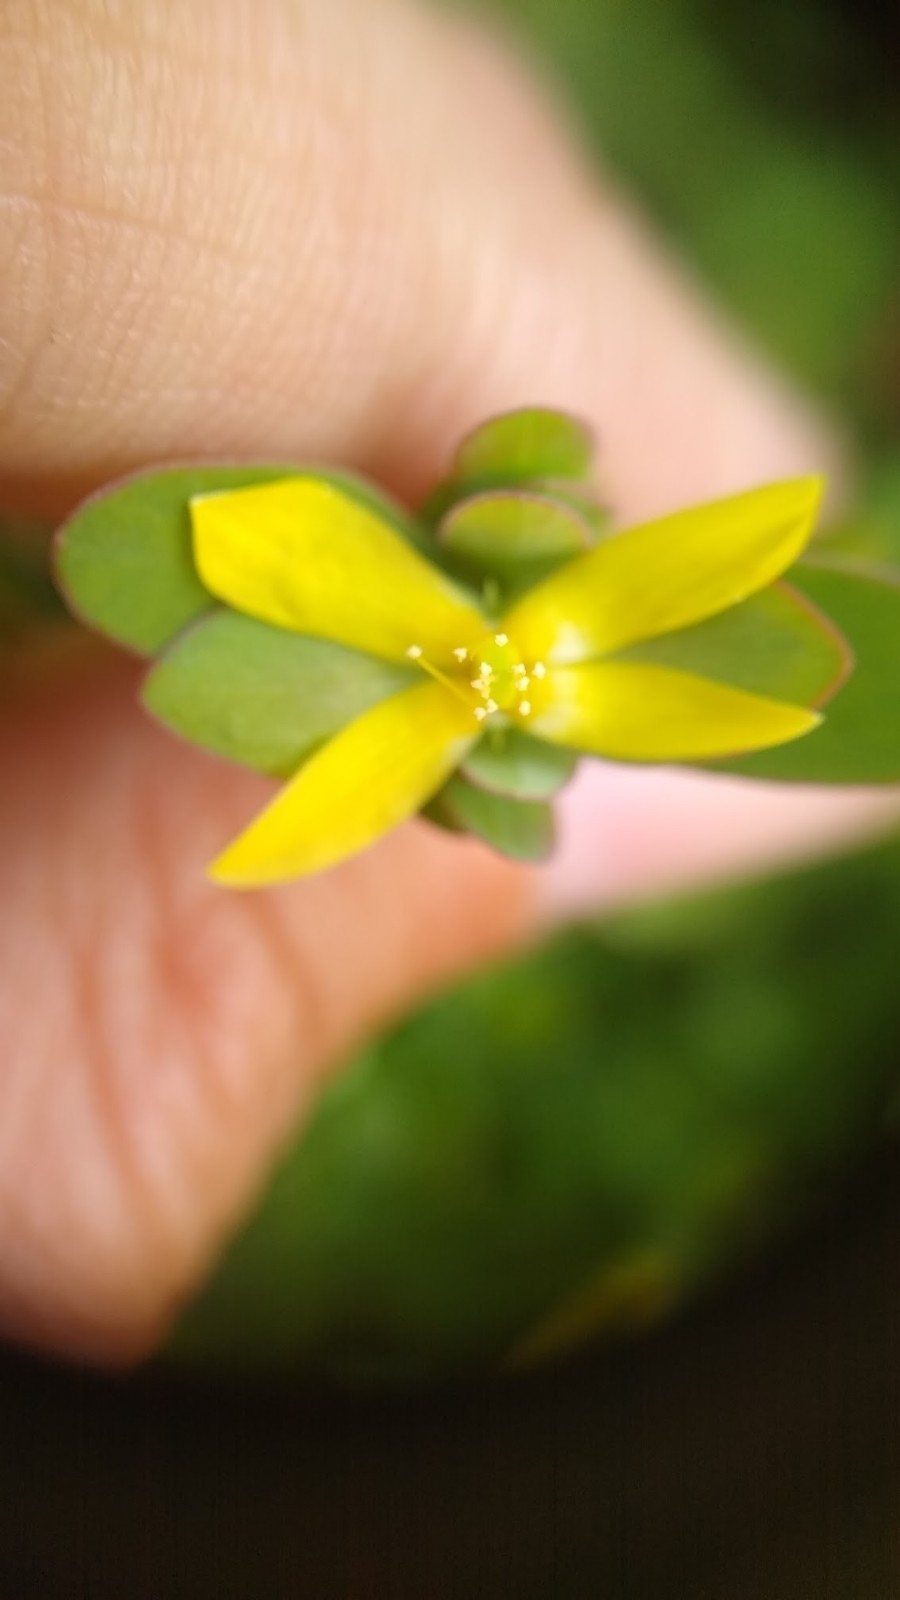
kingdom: Plantae
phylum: Tracheophyta
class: Magnoliopsida
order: Malpighiales
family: Hypericaceae
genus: Hypericum
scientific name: Hypericum hypericoides
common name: St. andrew's cross
